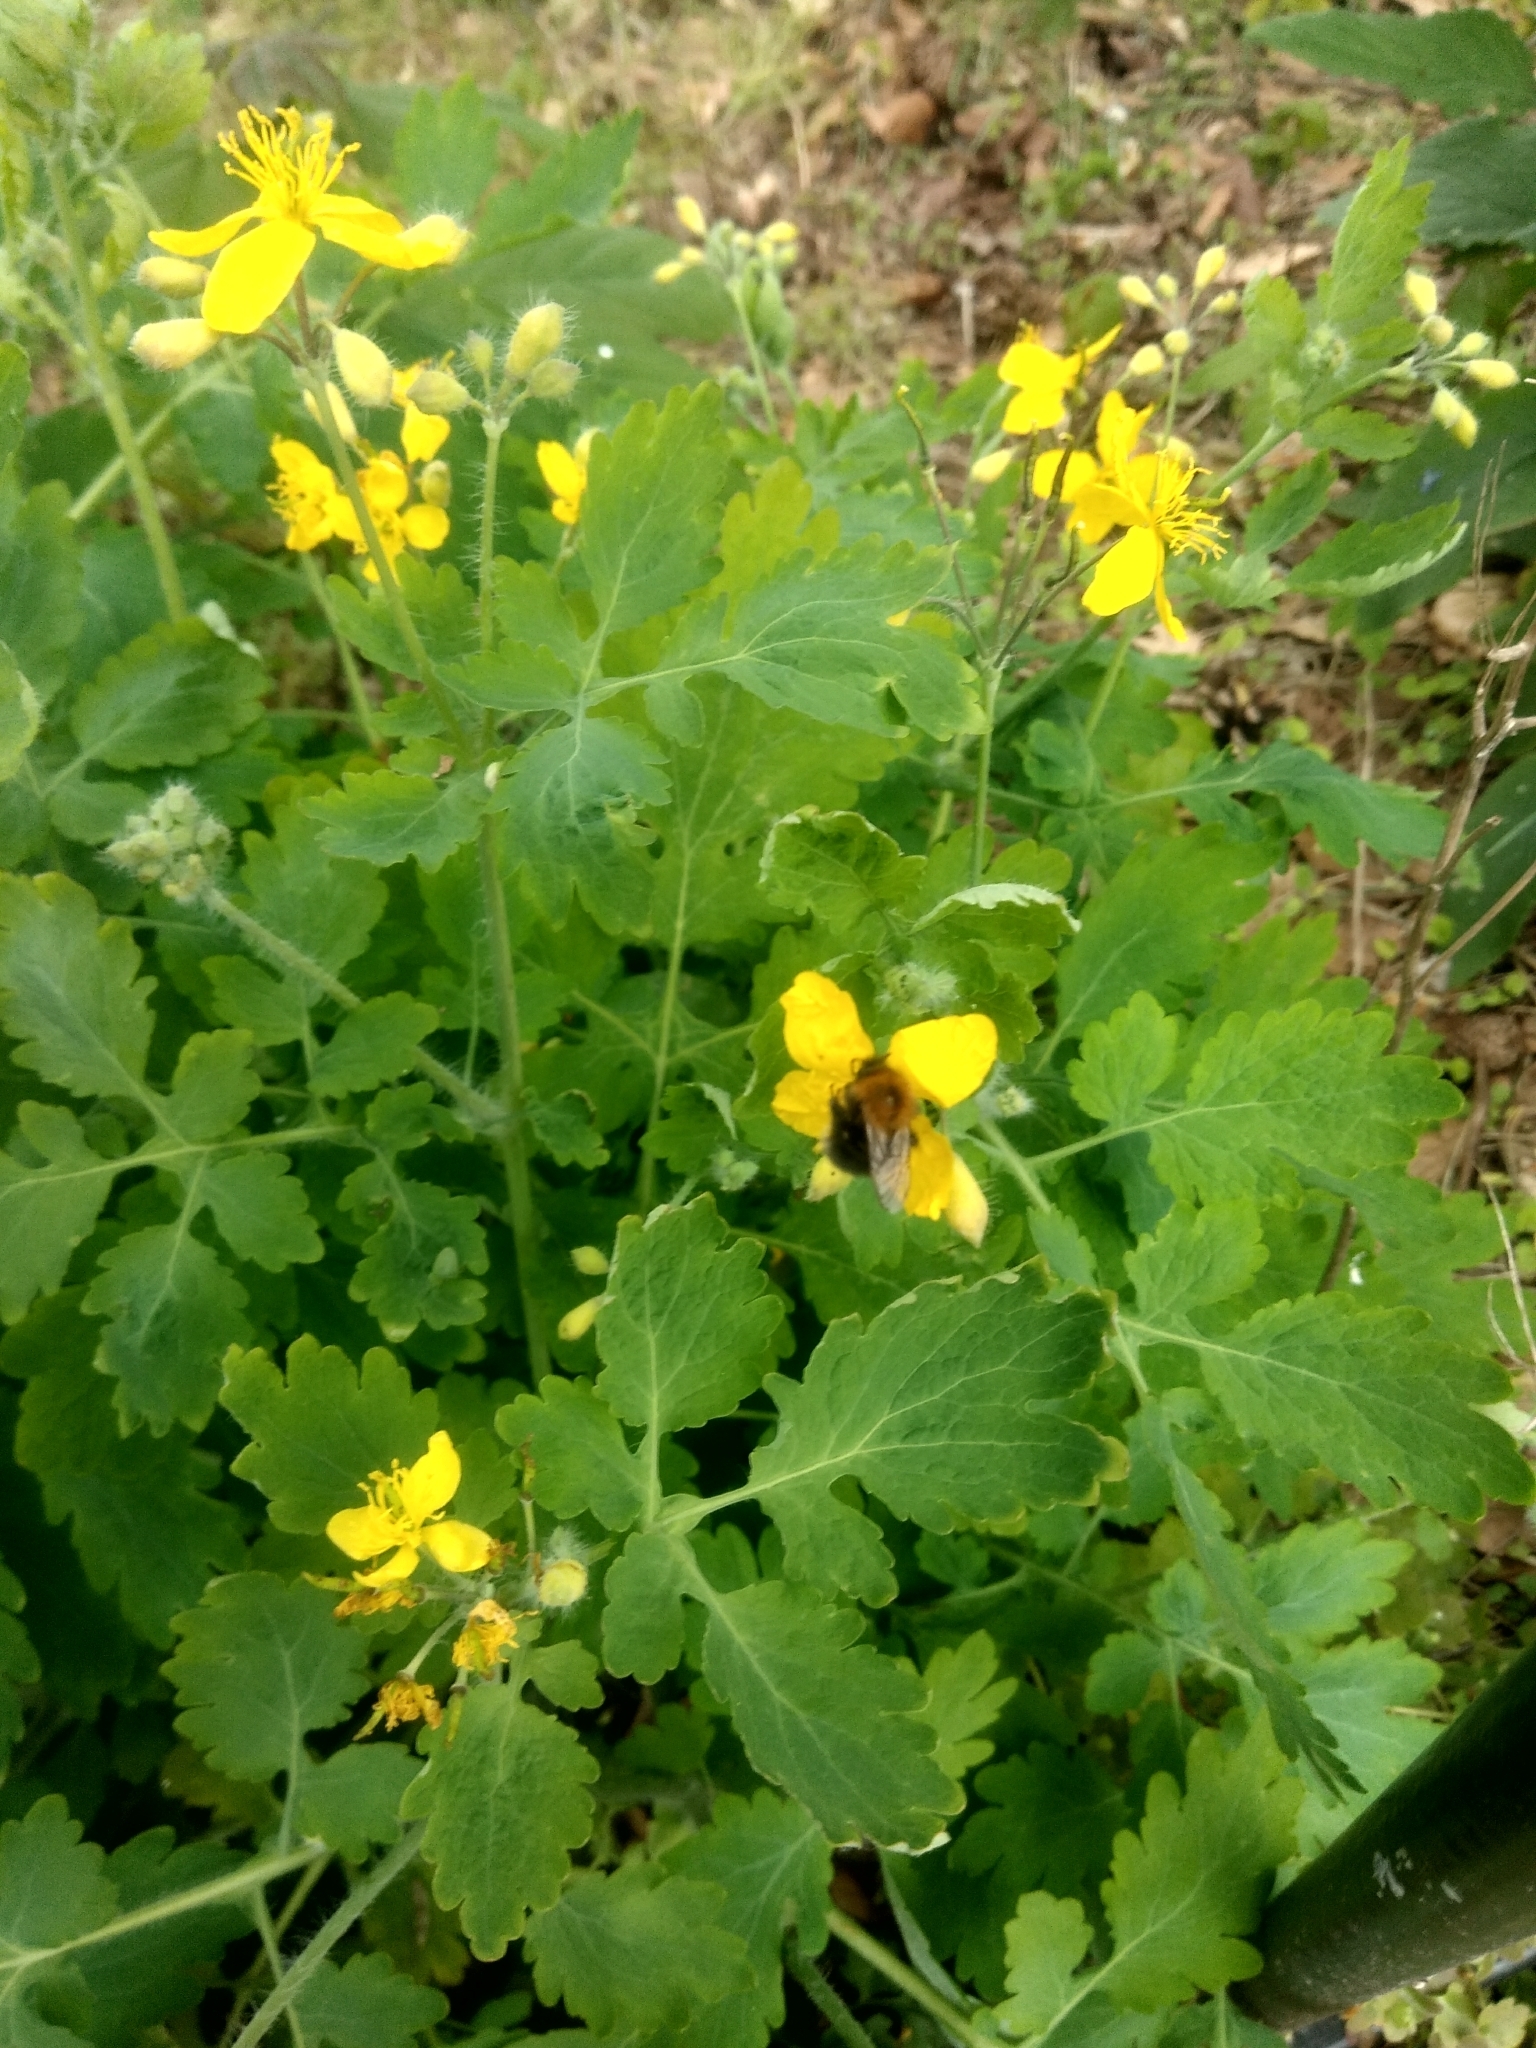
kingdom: Plantae
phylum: Tracheophyta
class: Magnoliopsida
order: Ranunculales
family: Papaveraceae
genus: Chelidonium
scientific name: Chelidonium majus
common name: Greater celandine
